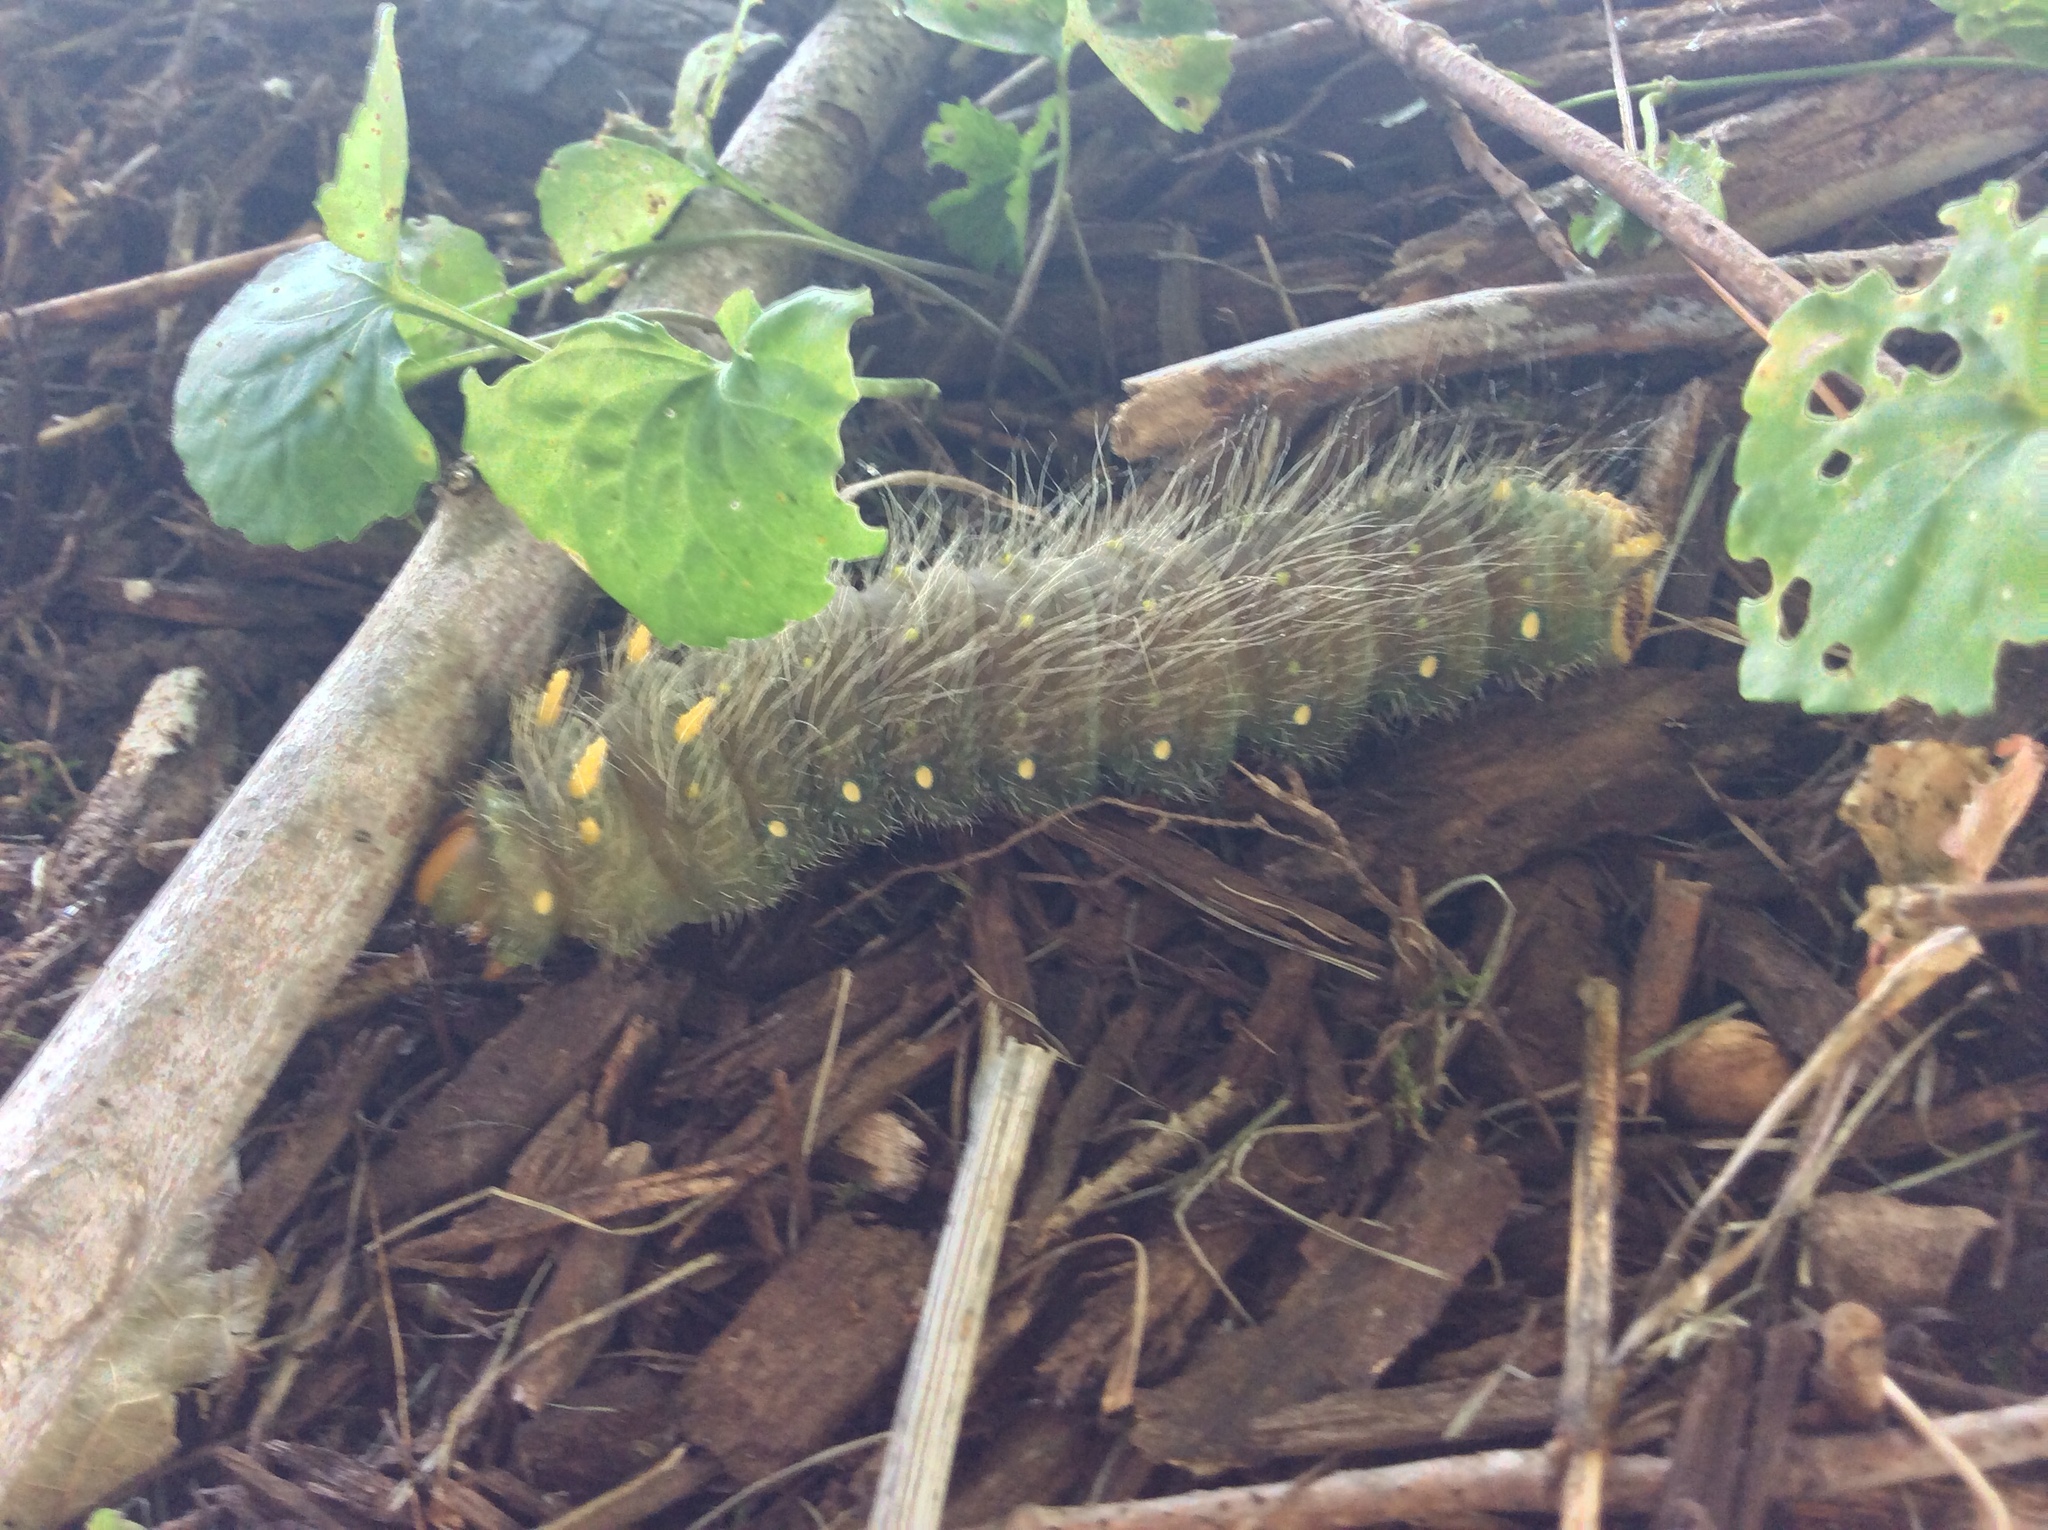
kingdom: Animalia
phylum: Arthropoda
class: Insecta
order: Lepidoptera
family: Saturniidae
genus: Eacles
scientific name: Eacles imperialis
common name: Imperial moth
